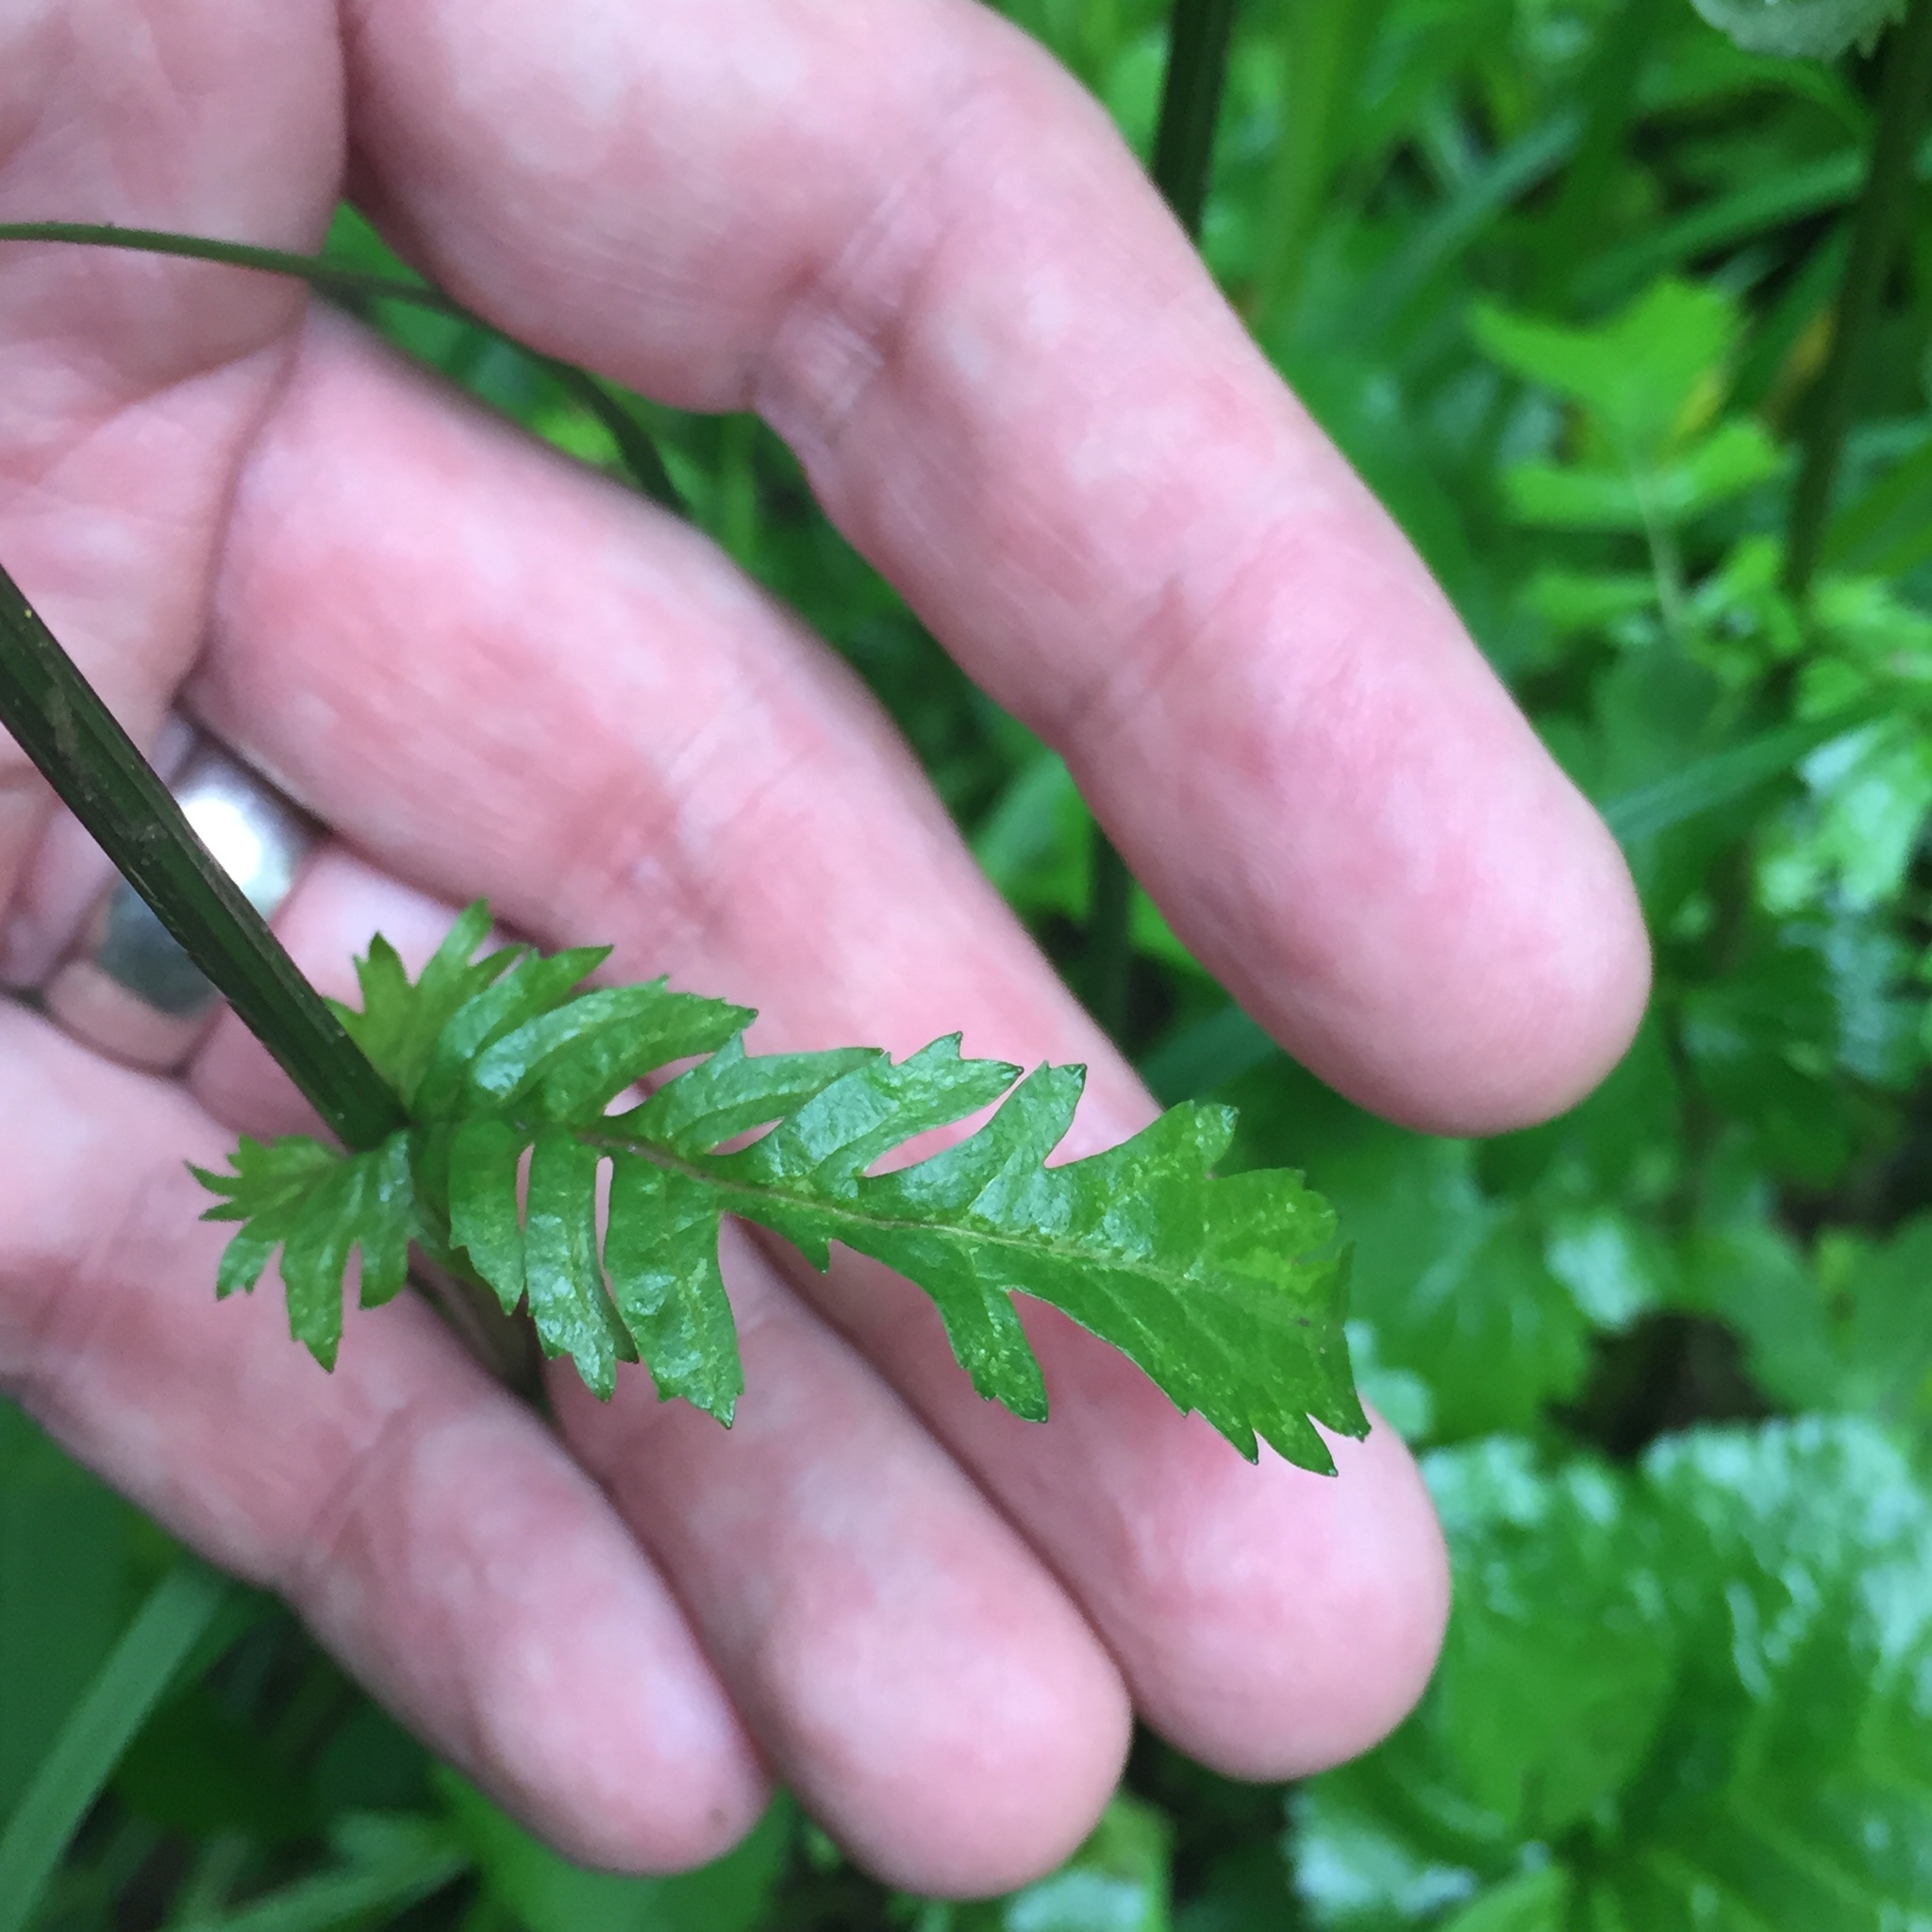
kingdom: Plantae
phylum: Tracheophyta
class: Magnoliopsida
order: Asterales
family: Asteraceae
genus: Packera
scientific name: Packera aurea
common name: Golden groundsel
